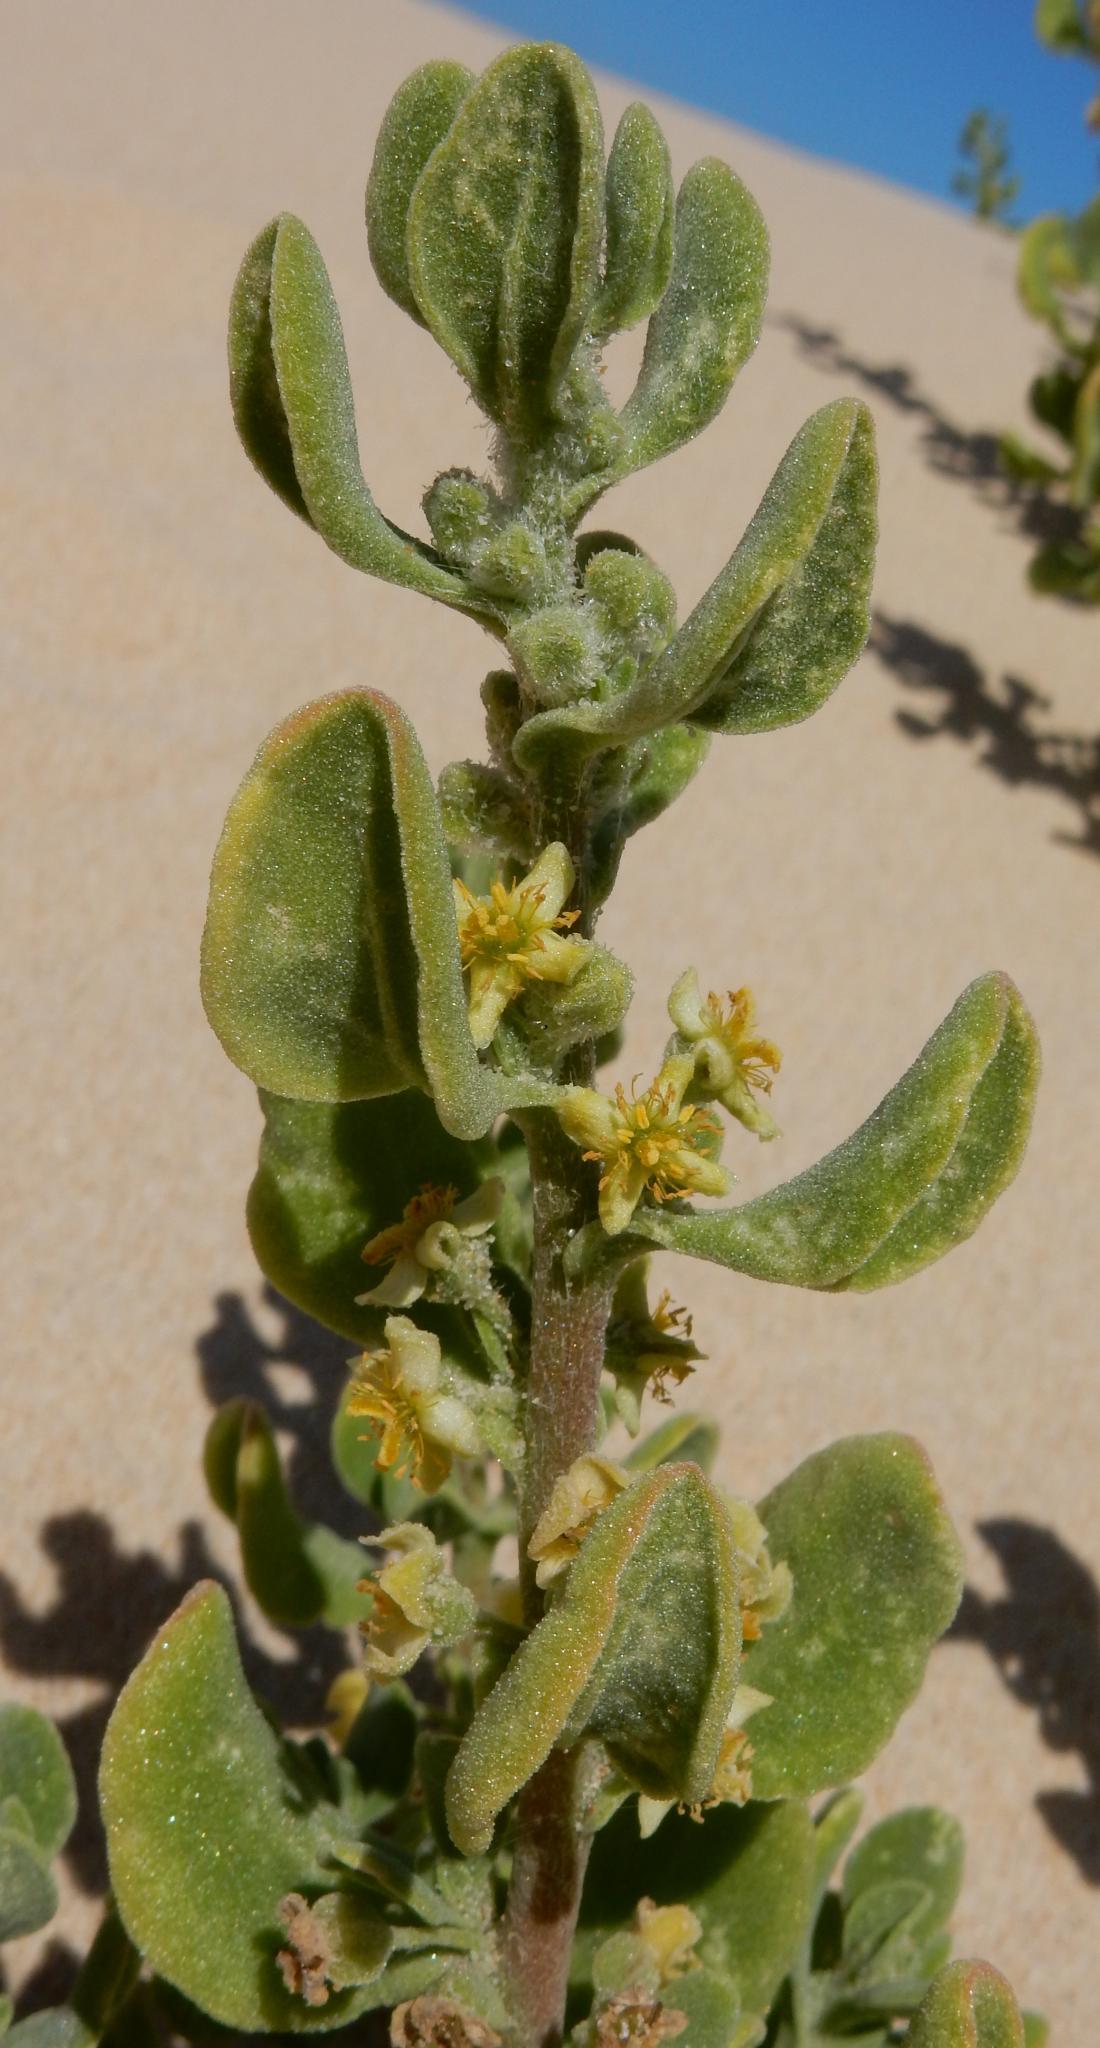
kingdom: Plantae
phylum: Tracheophyta
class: Magnoliopsida
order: Caryophyllales
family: Aizoaceae
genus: Tetragonia
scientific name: Tetragonia decumbens
